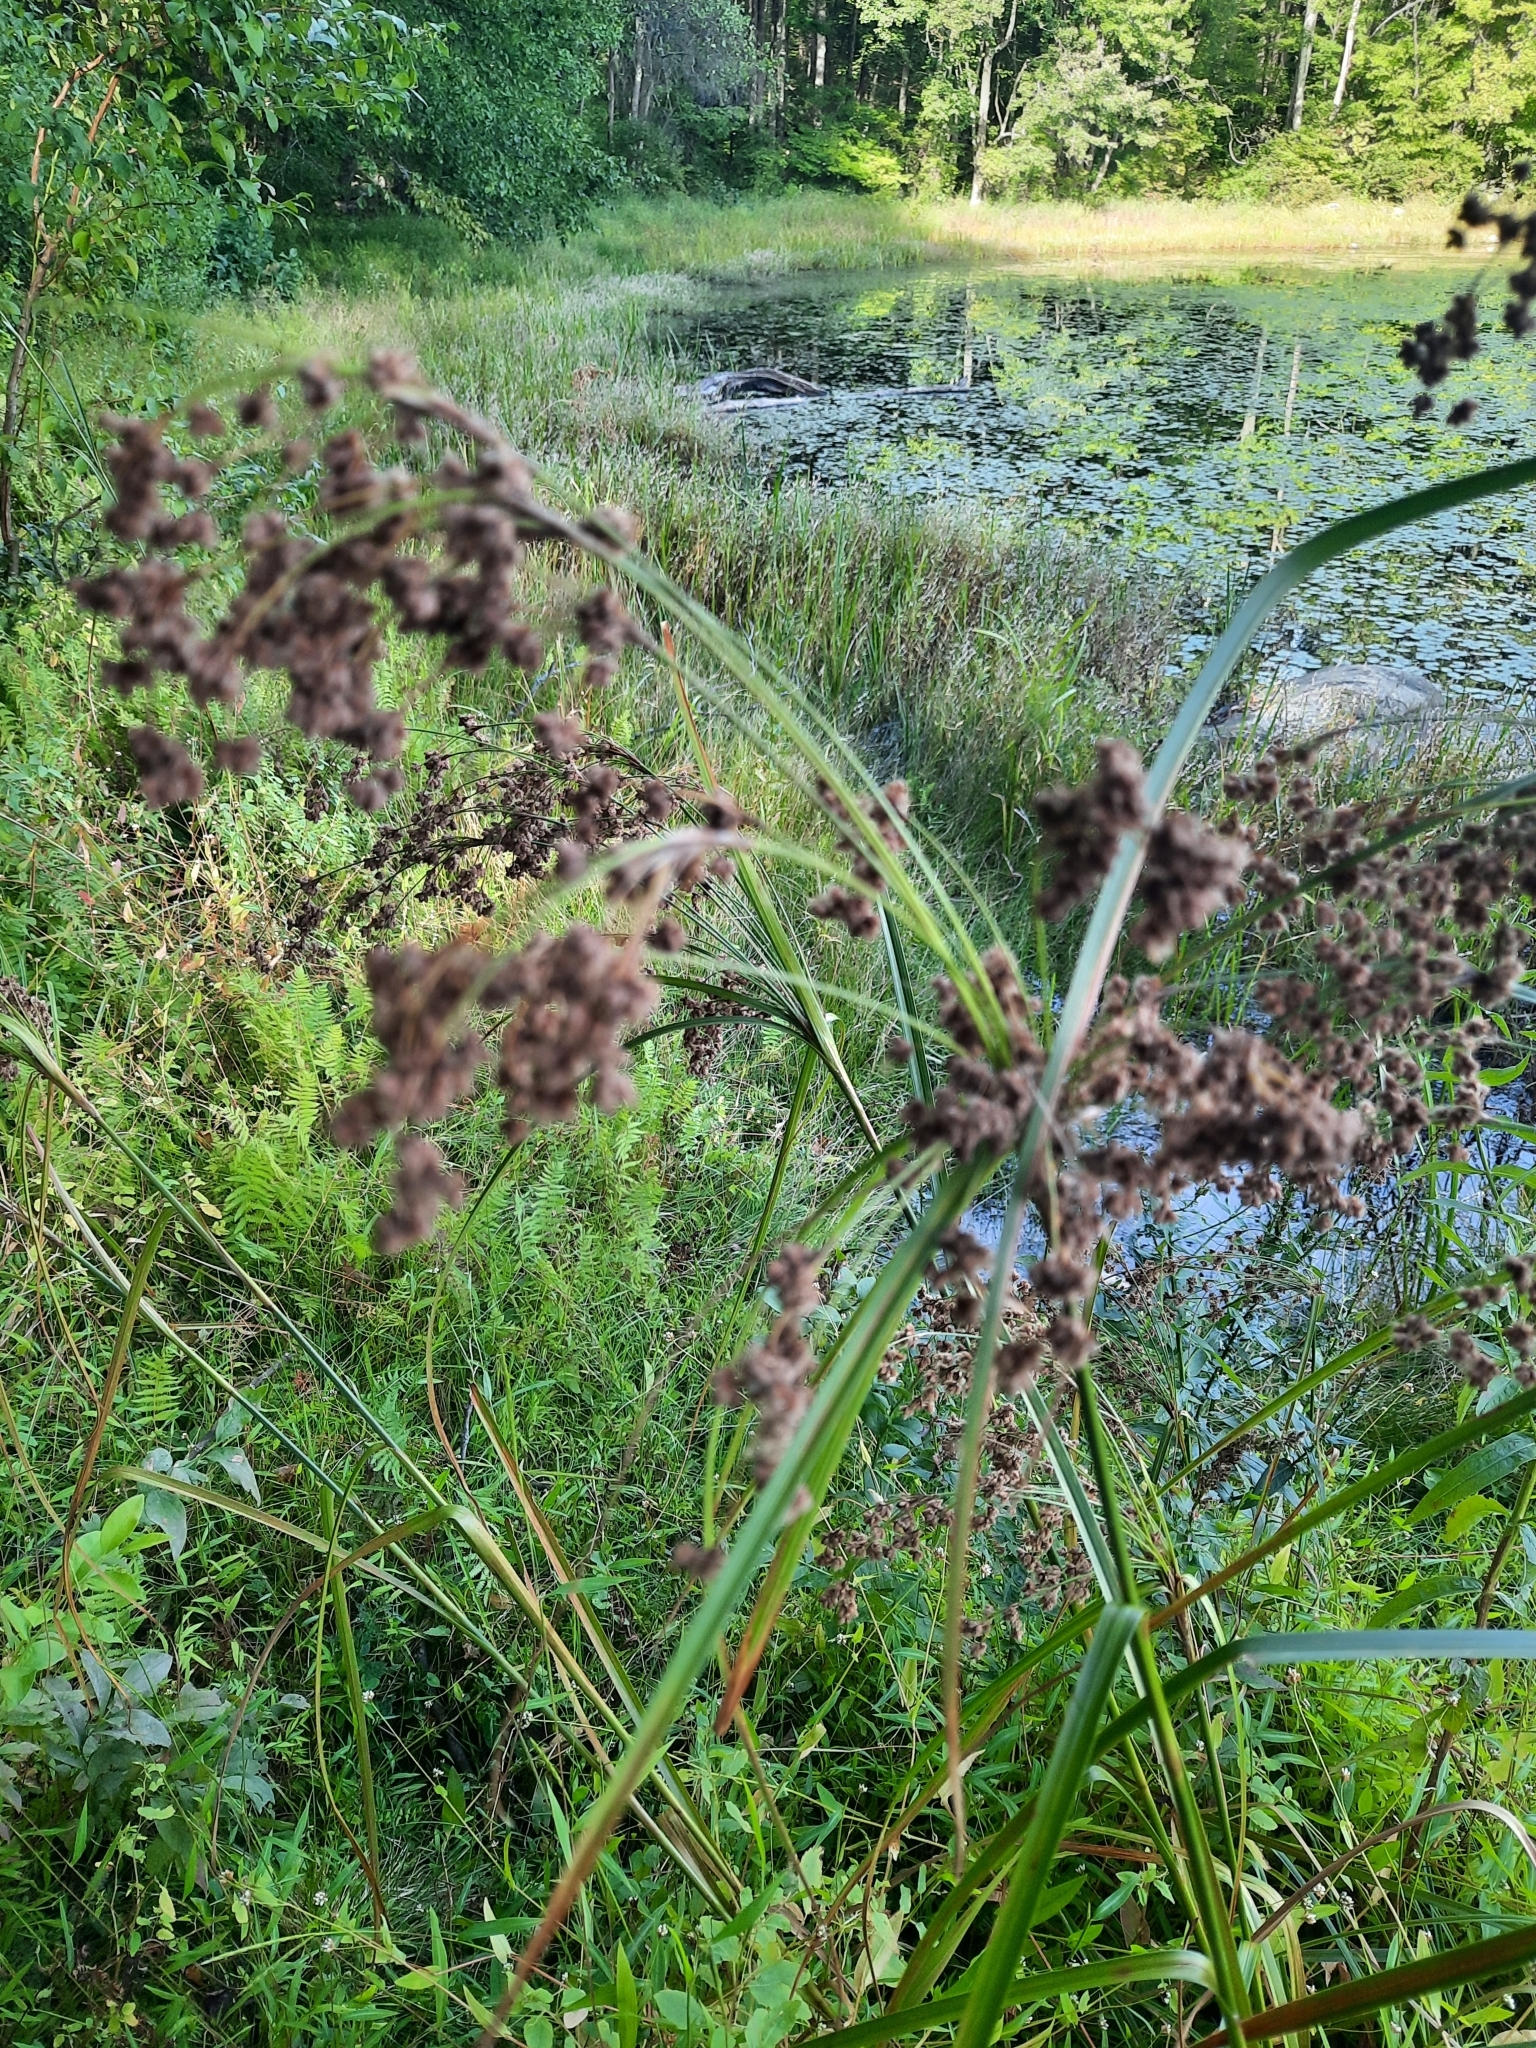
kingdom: Plantae
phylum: Tracheophyta
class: Liliopsida
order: Poales
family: Cyperaceae
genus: Scirpus
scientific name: Scirpus cyperinus
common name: Black-sheathed bulrush
